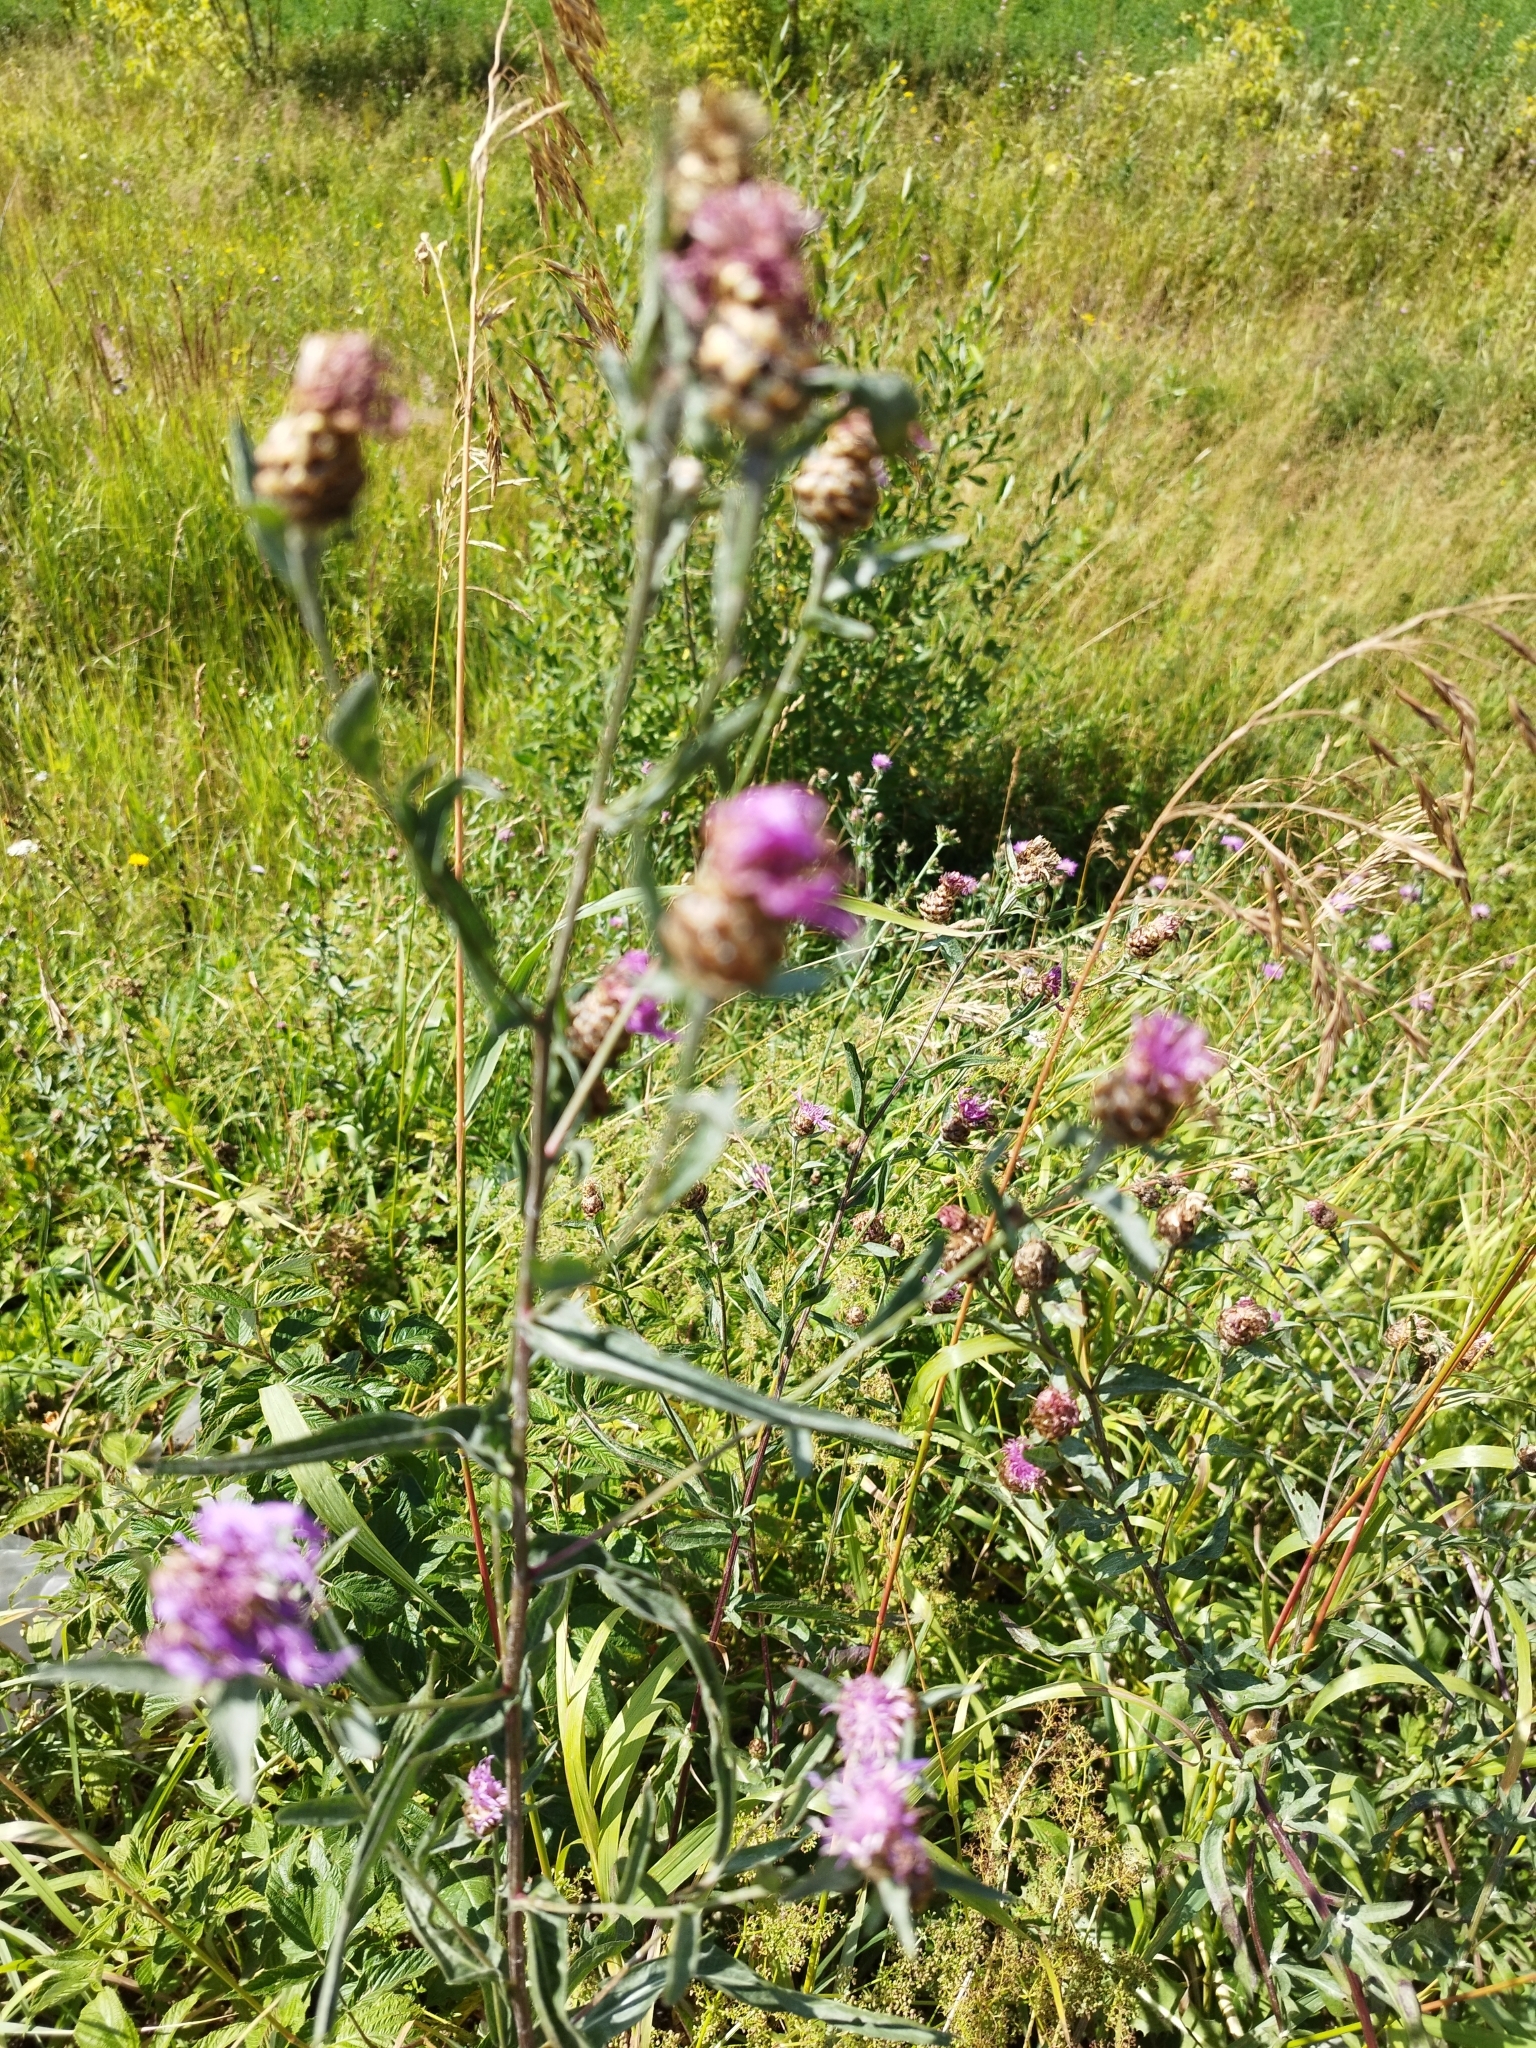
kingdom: Plantae
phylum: Tracheophyta
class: Magnoliopsida
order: Asterales
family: Asteraceae
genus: Centaurea
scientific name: Centaurea jacea
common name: Brown knapweed
